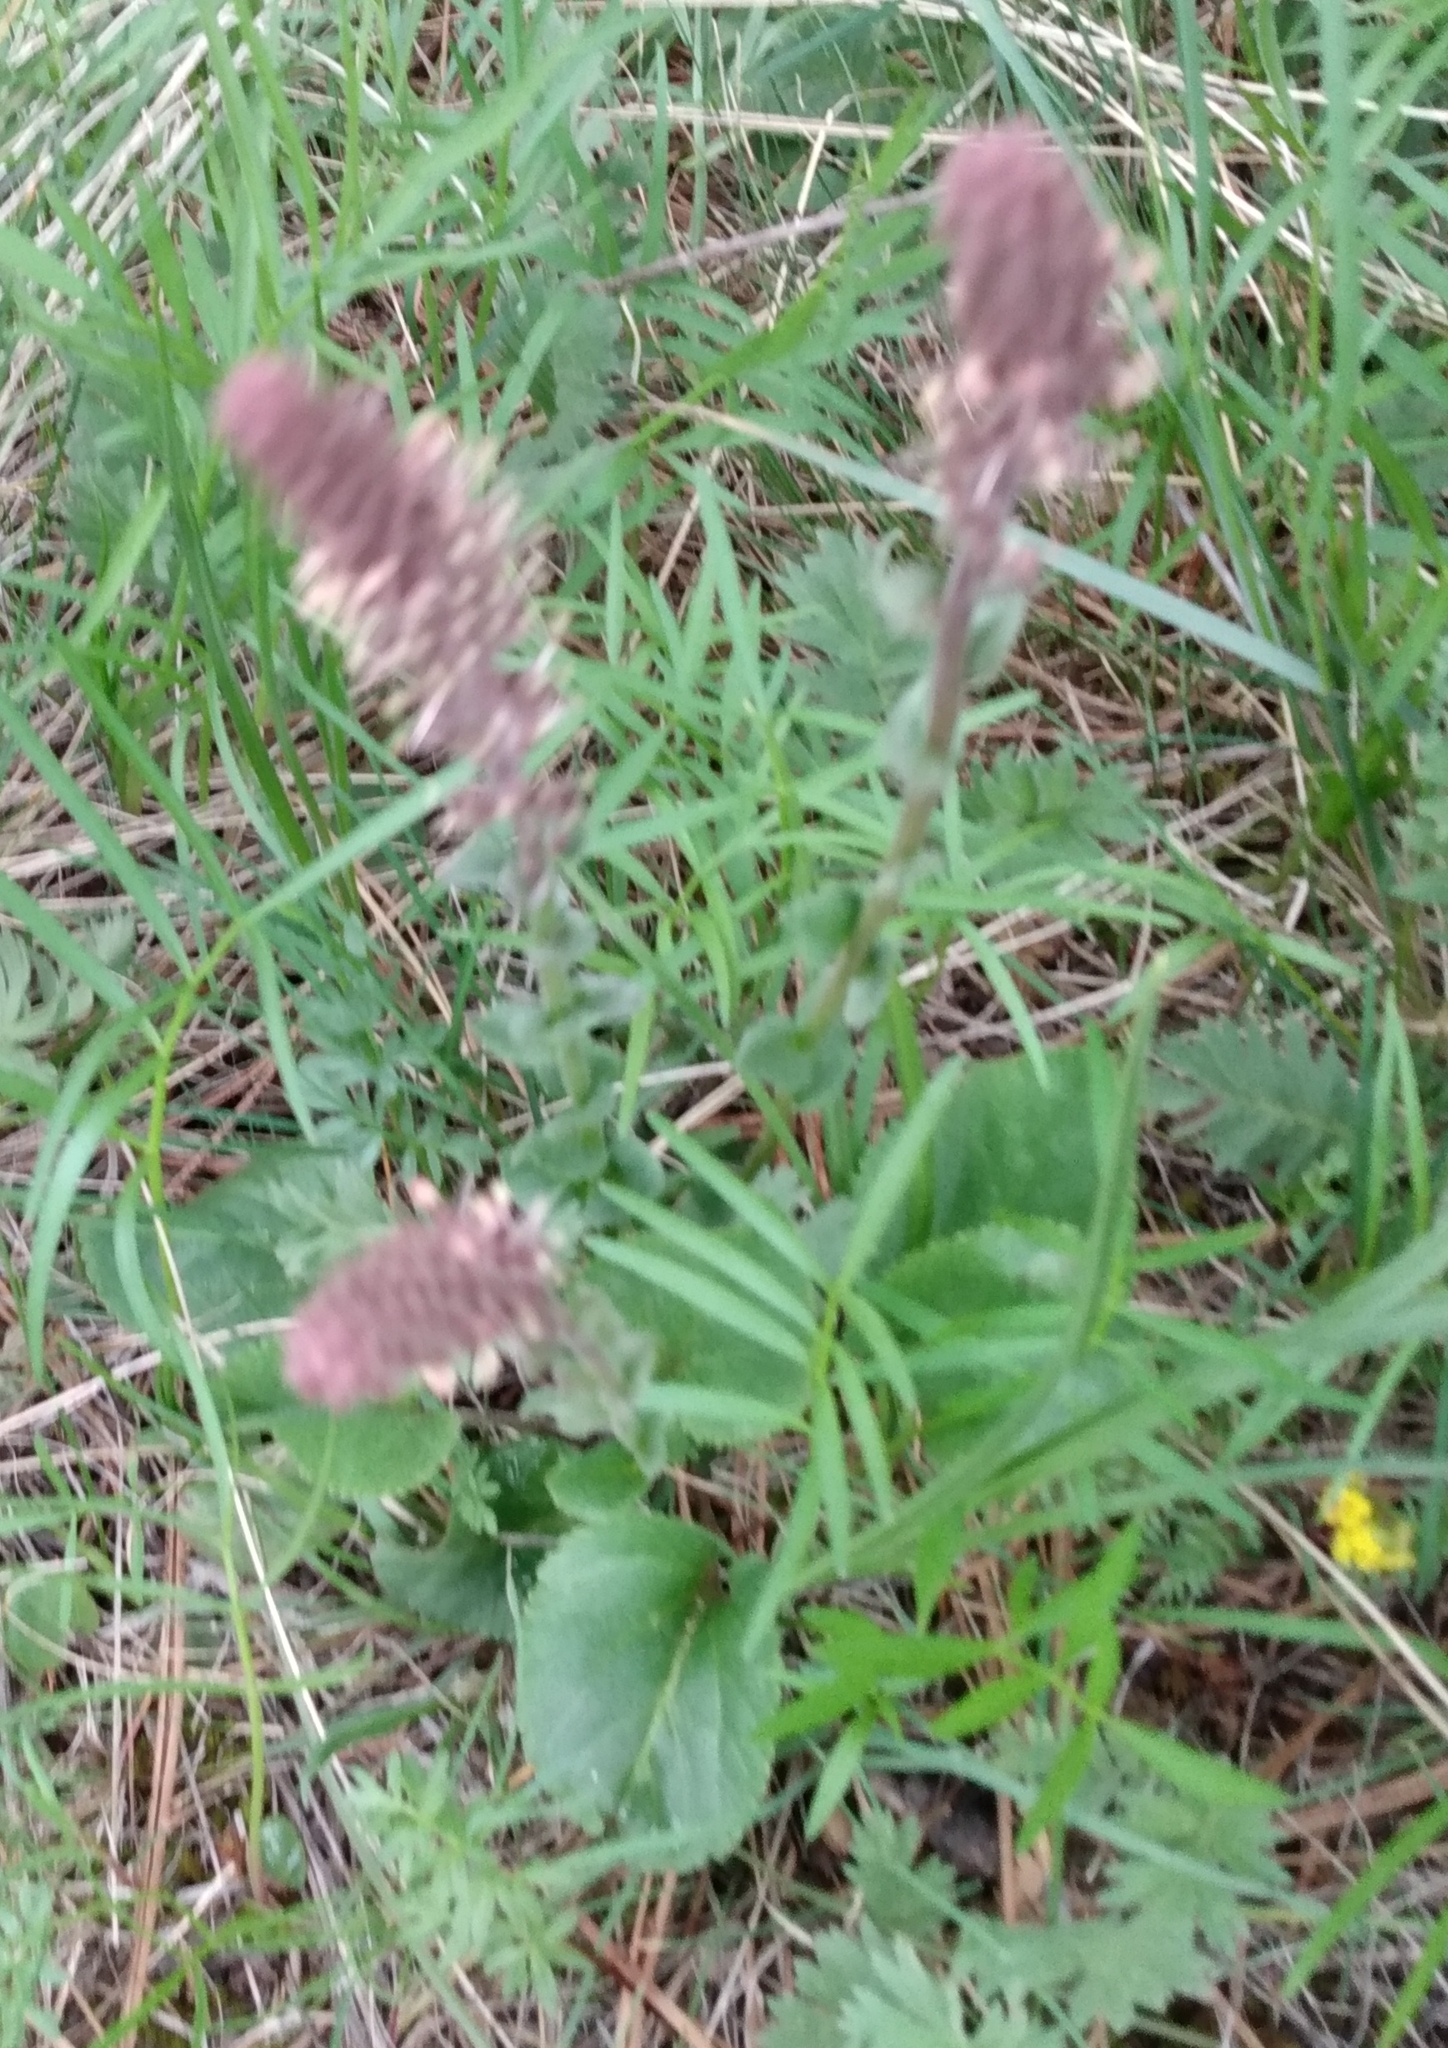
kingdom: Plantae
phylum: Tracheophyta
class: Magnoliopsida
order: Lamiales
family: Plantaginaceae
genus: Synthyris
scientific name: Synthyris rubra
